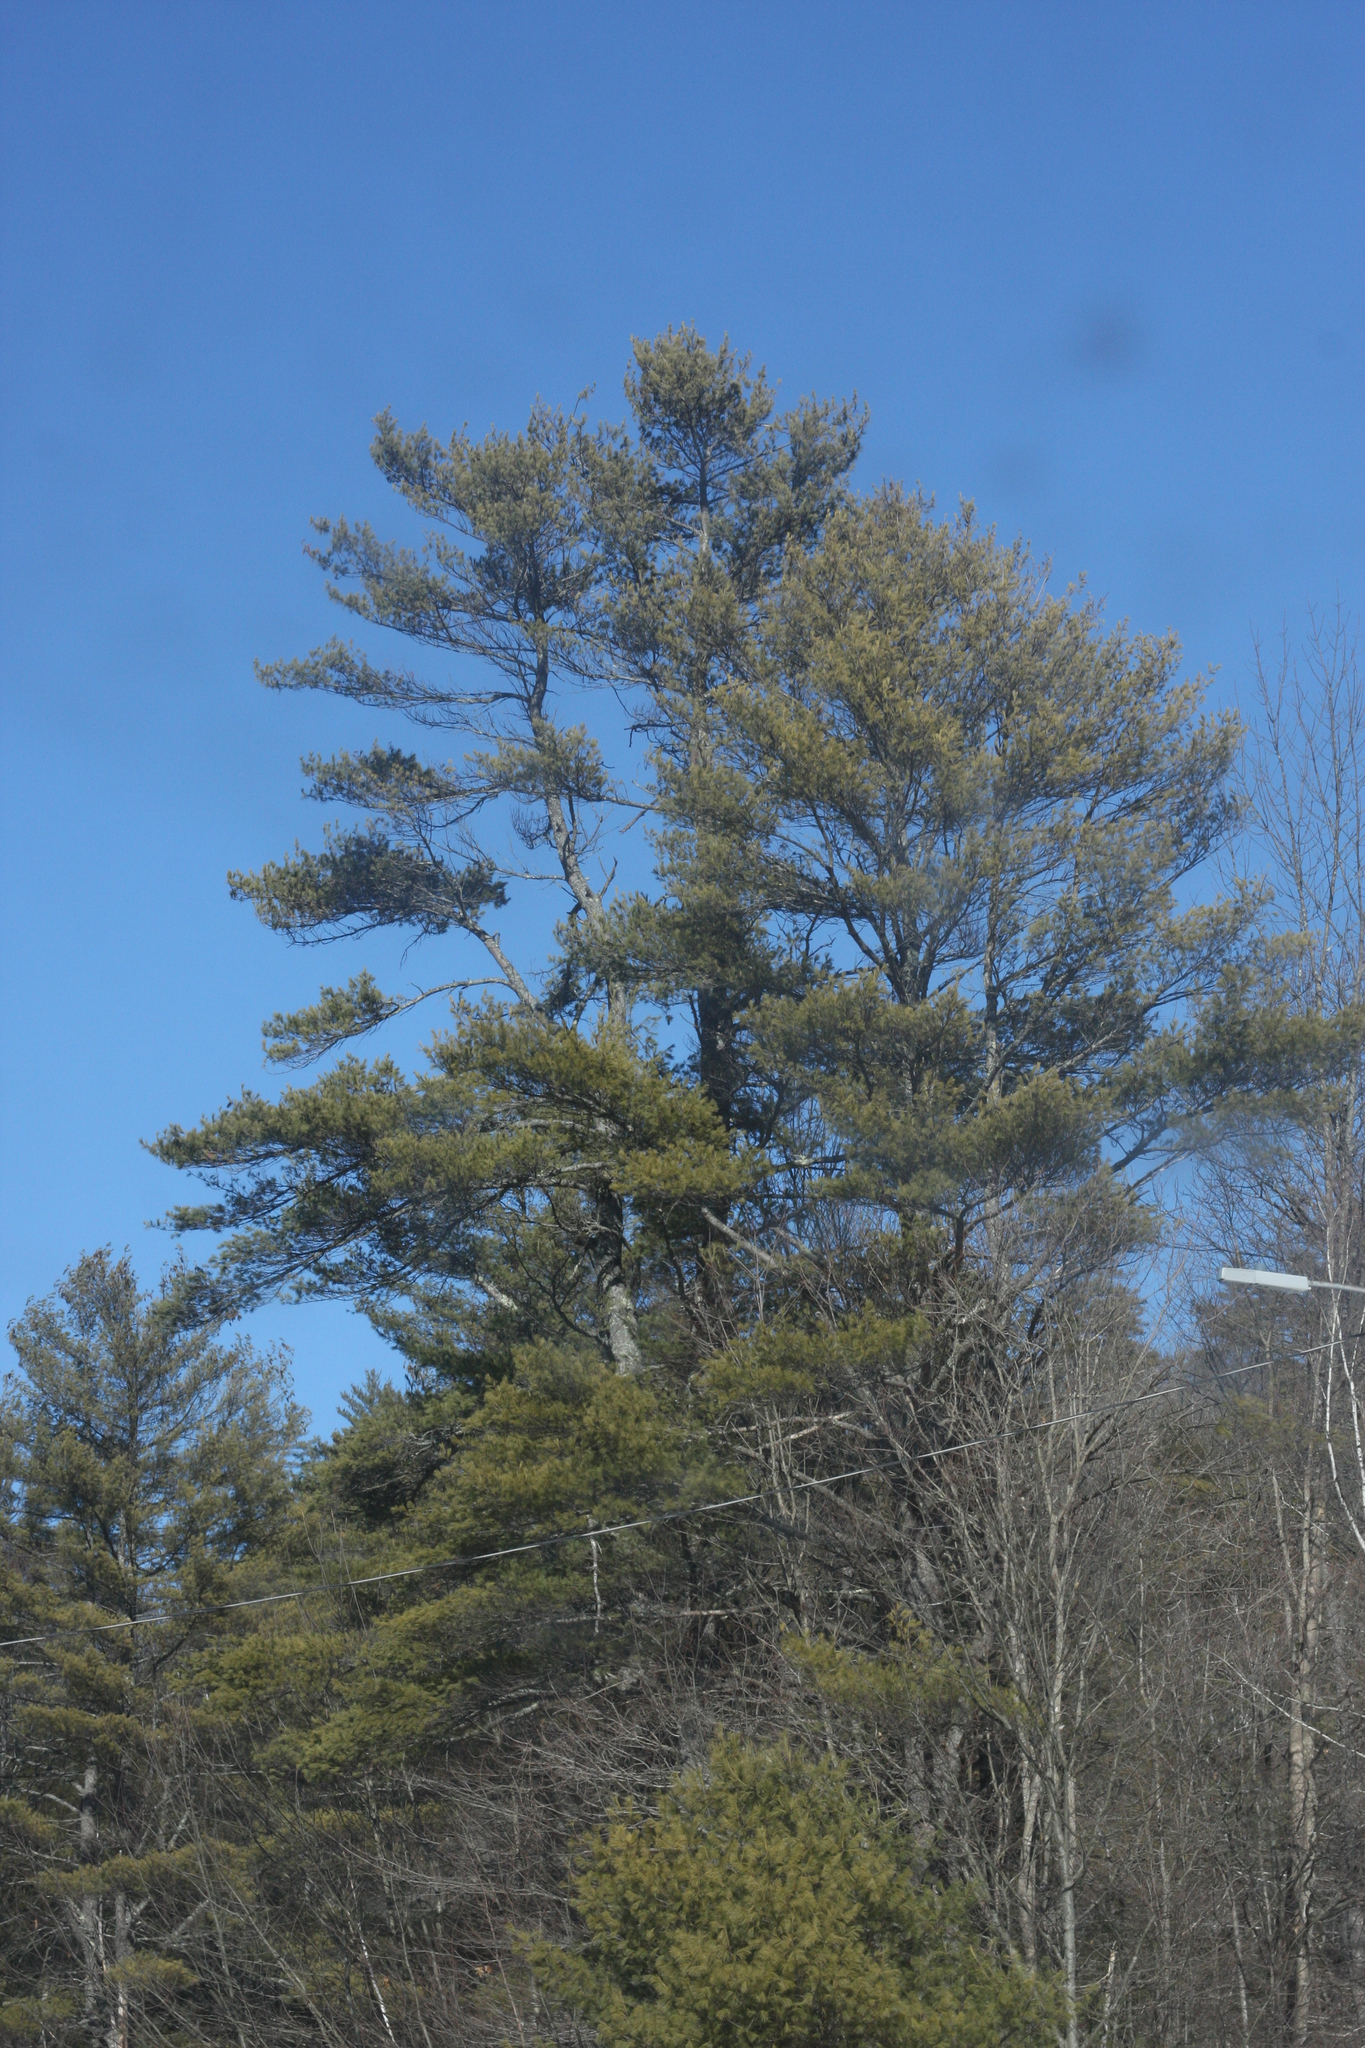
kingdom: Plantae
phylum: Tracheophyta
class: Pinopsida
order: Pinales
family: Pinaceae
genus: Pinus
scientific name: Pinus strobus
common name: Weymouth pine
